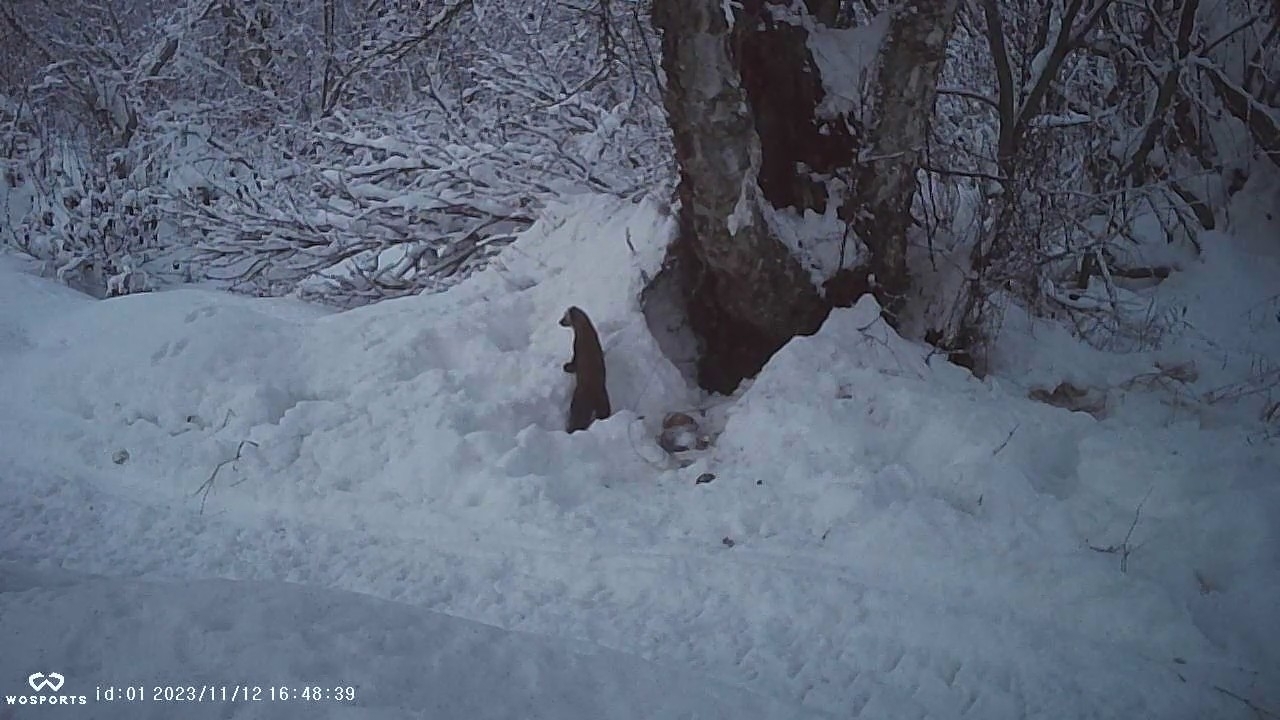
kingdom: Animalia
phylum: Chordata
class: Mammalia
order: Carnivora
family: Mustelidae
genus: Martes
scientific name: Martes americana
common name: American marten
